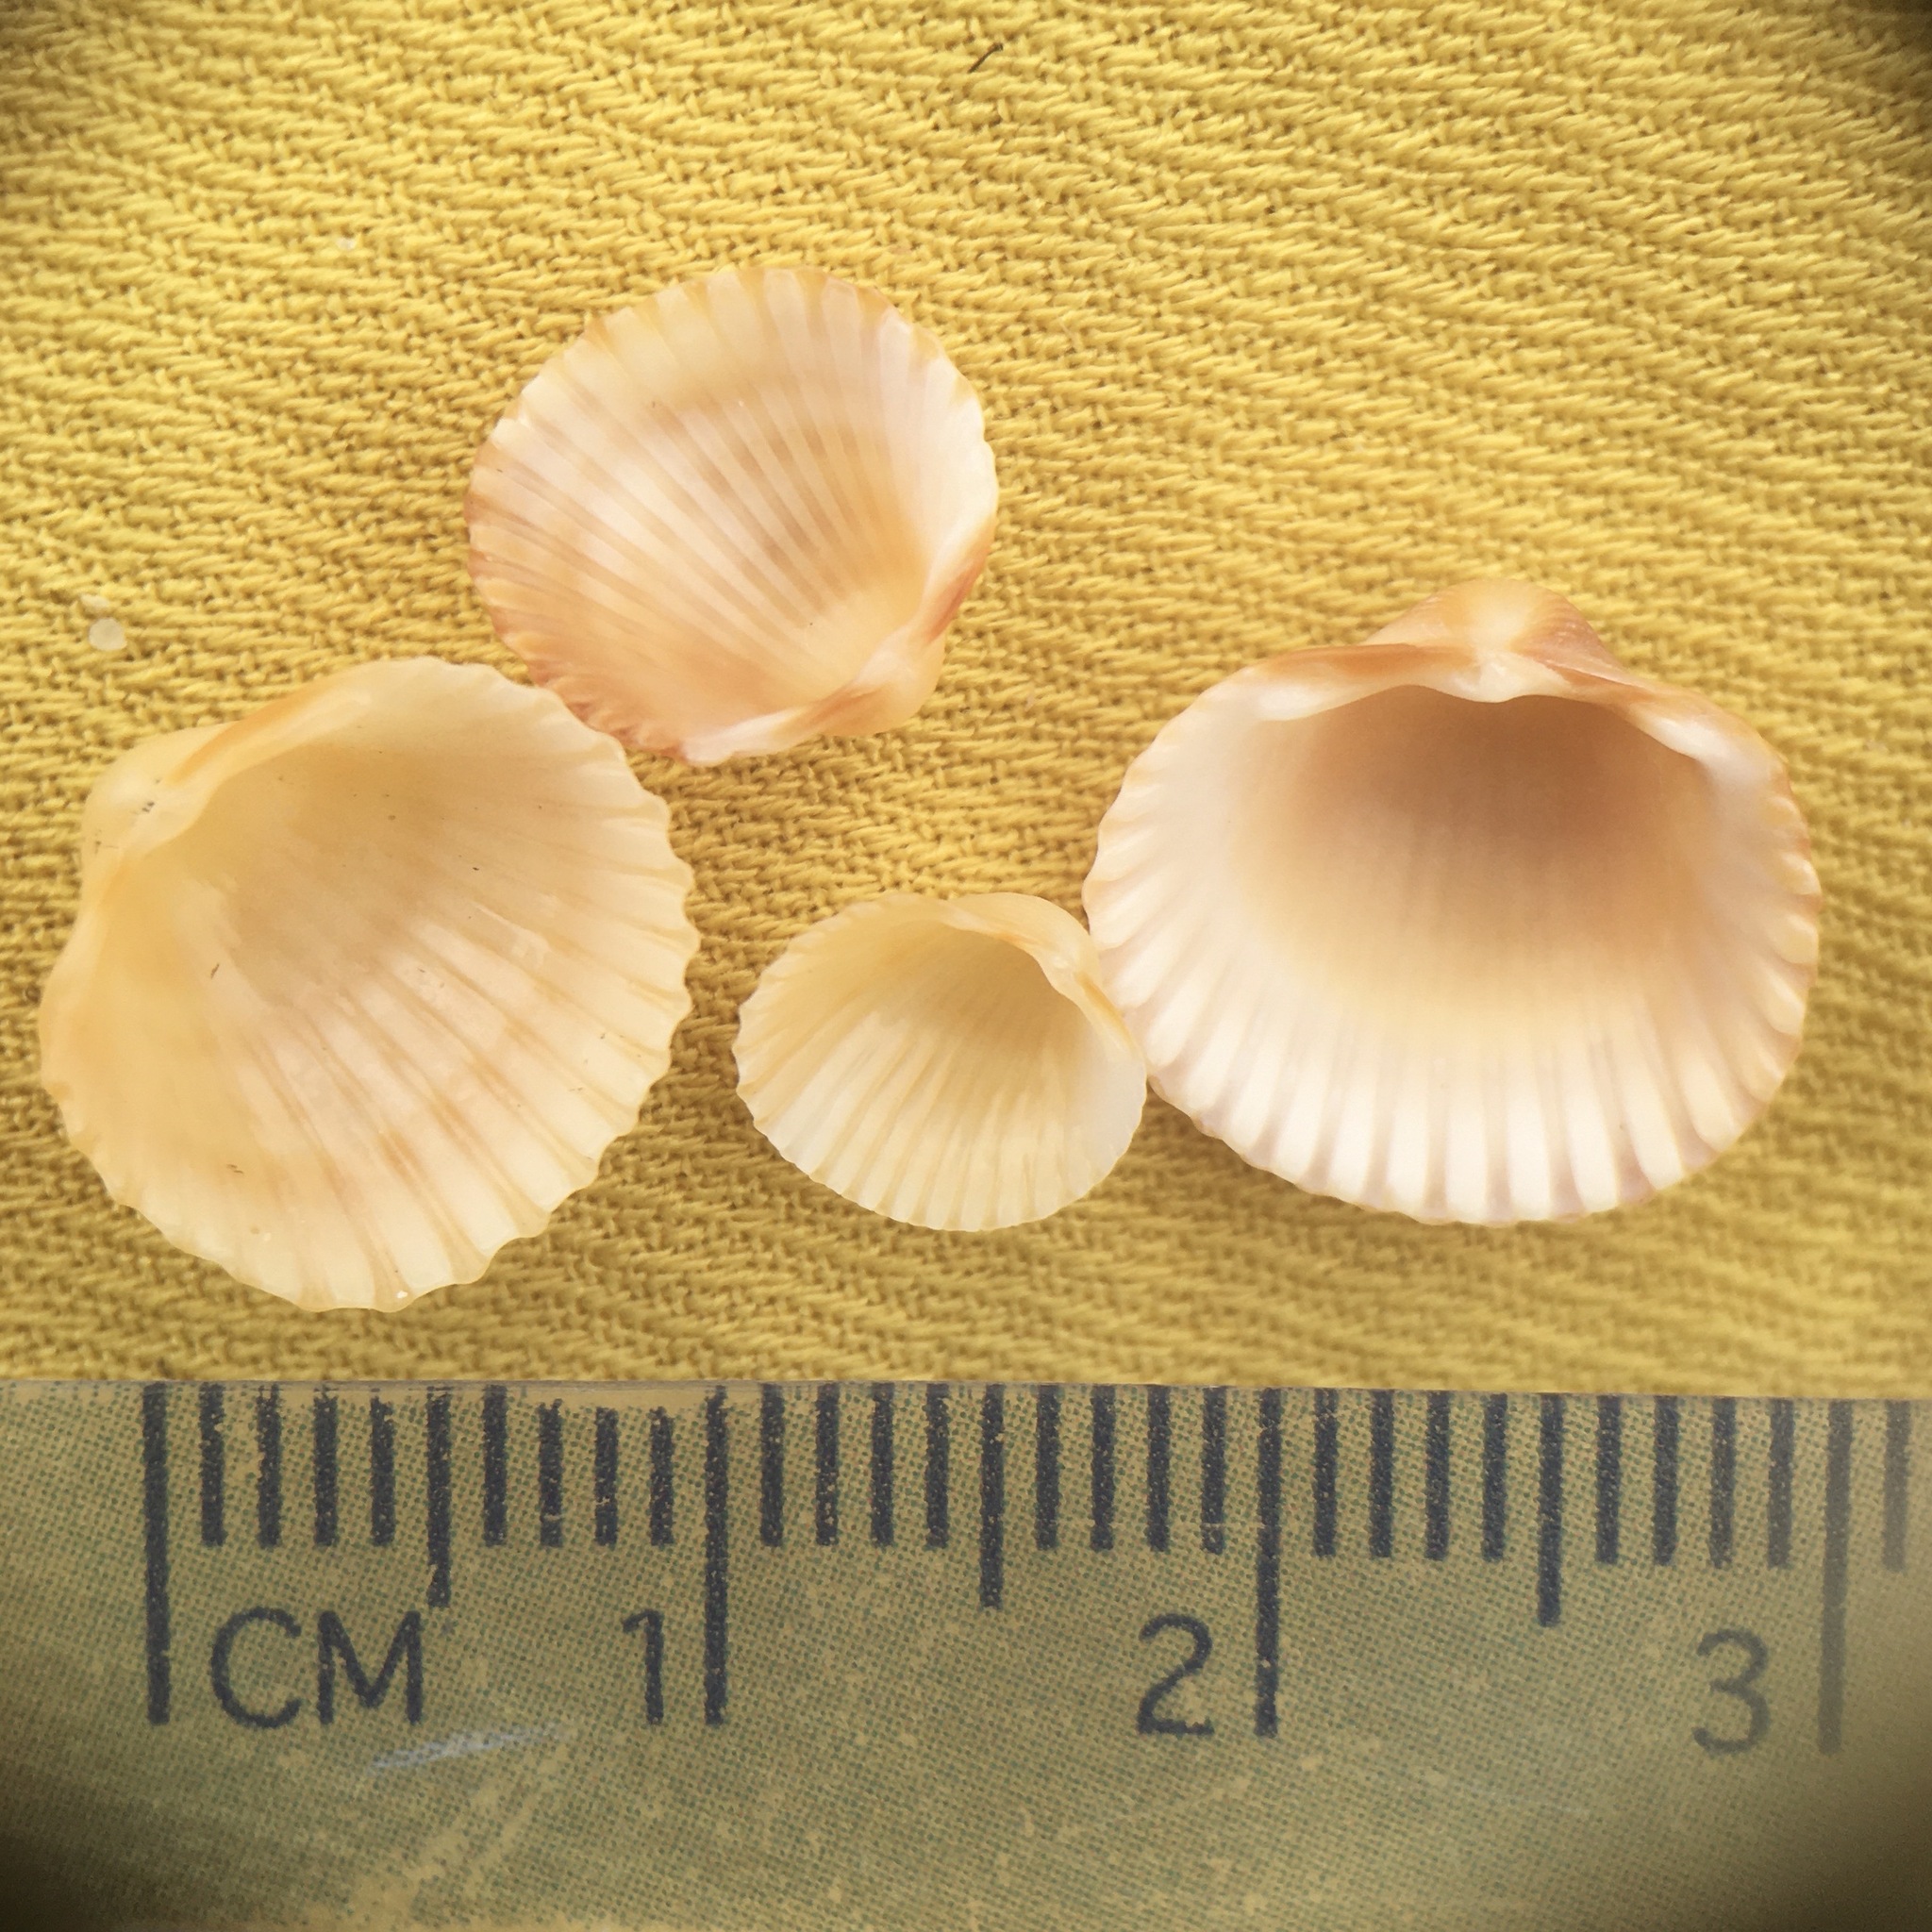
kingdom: Animalia
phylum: Mollusca
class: Bivalvia
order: Cardiida
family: Cardiidae
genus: Acanthocardia
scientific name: Acanthocardia tuberculata
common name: Rough cockle
